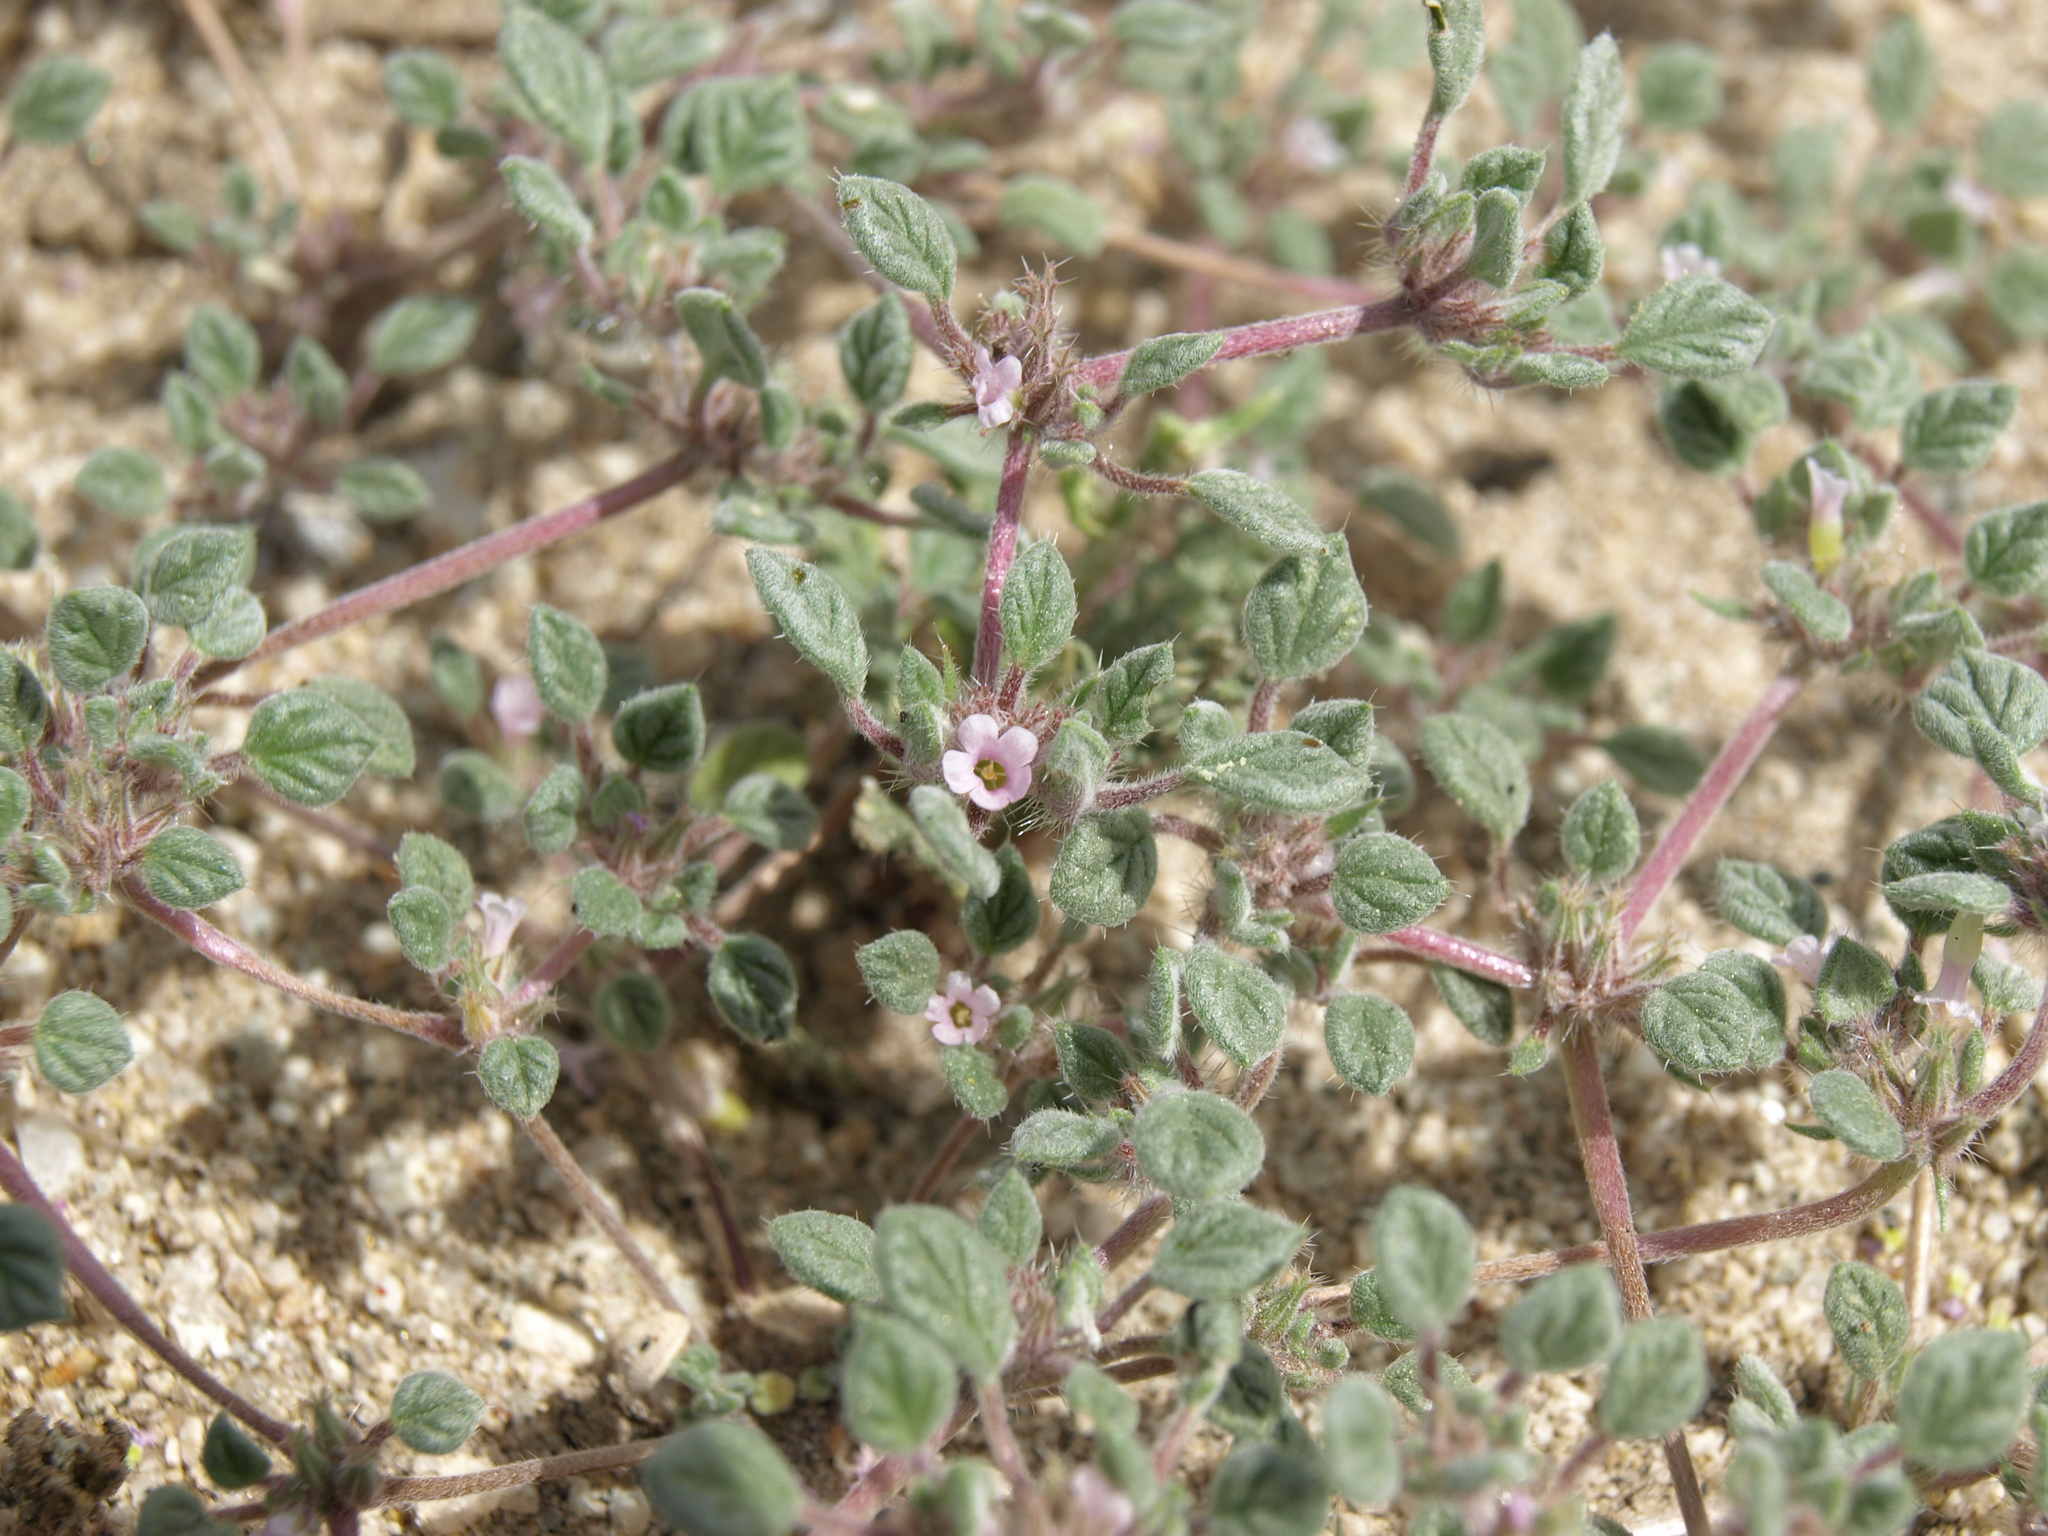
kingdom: Plantae
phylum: Tracheophyta
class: Magnoliopsida
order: Boraginales
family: Ehretiaceae
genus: Tiquilia
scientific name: Tiquilia nuttallii
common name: Rosette tiquilia
